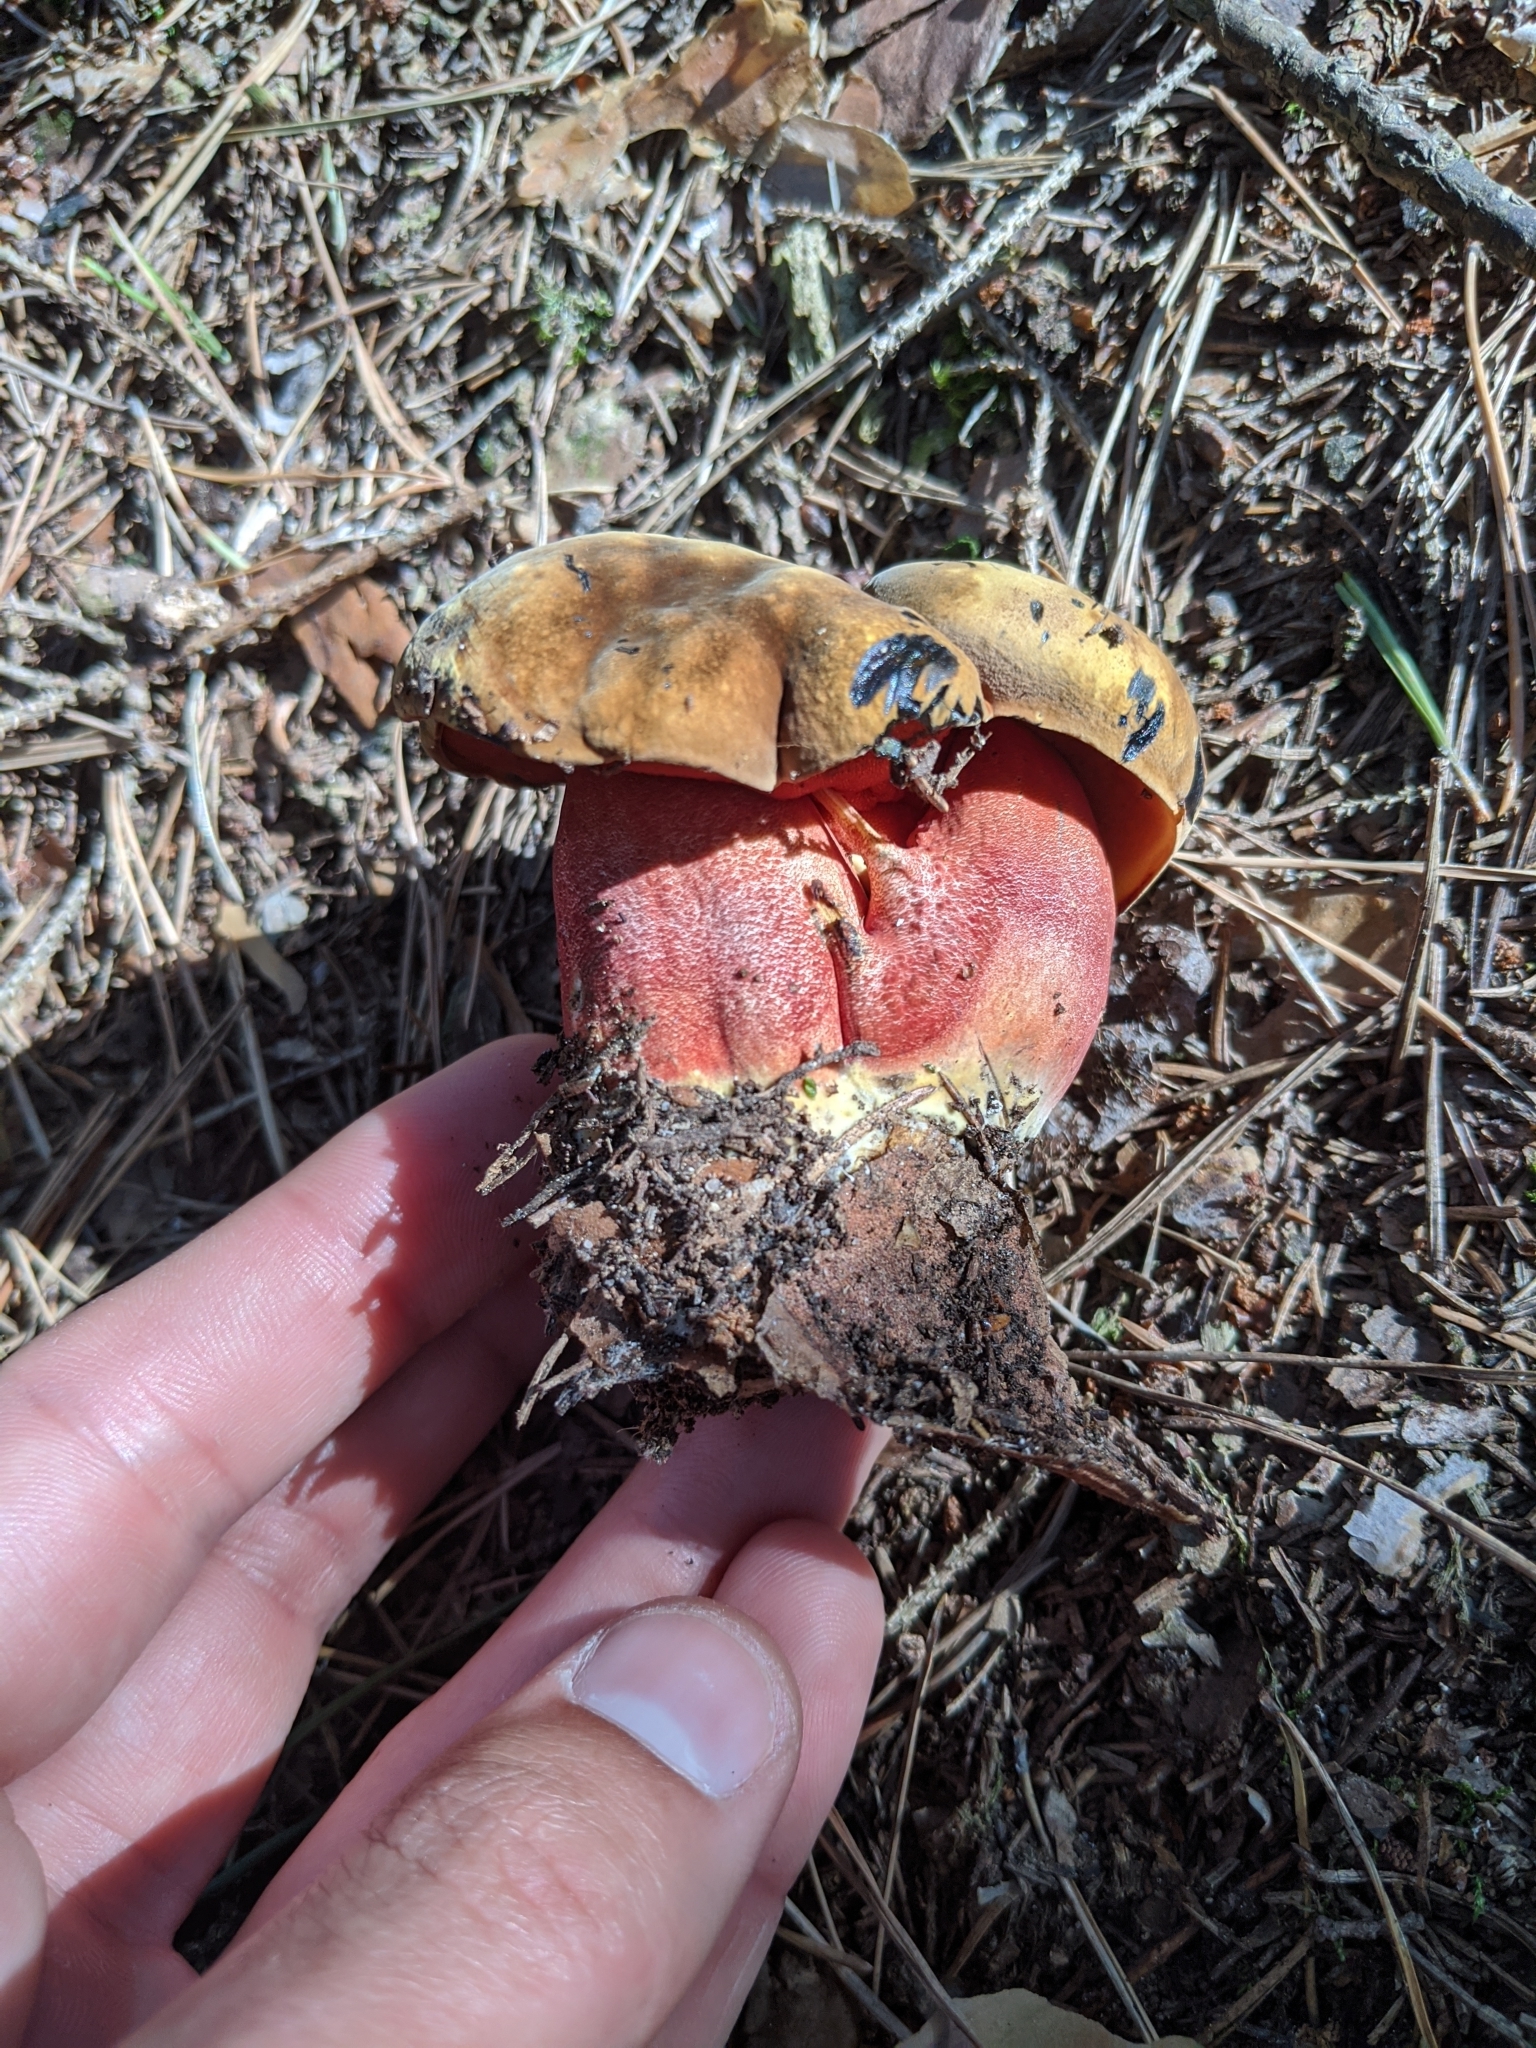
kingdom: Fungi
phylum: Basidiomycota
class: Agaricomycetes
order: Boletales
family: Boletaceae
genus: Neoboletus
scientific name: Neoboletus luridiformis
